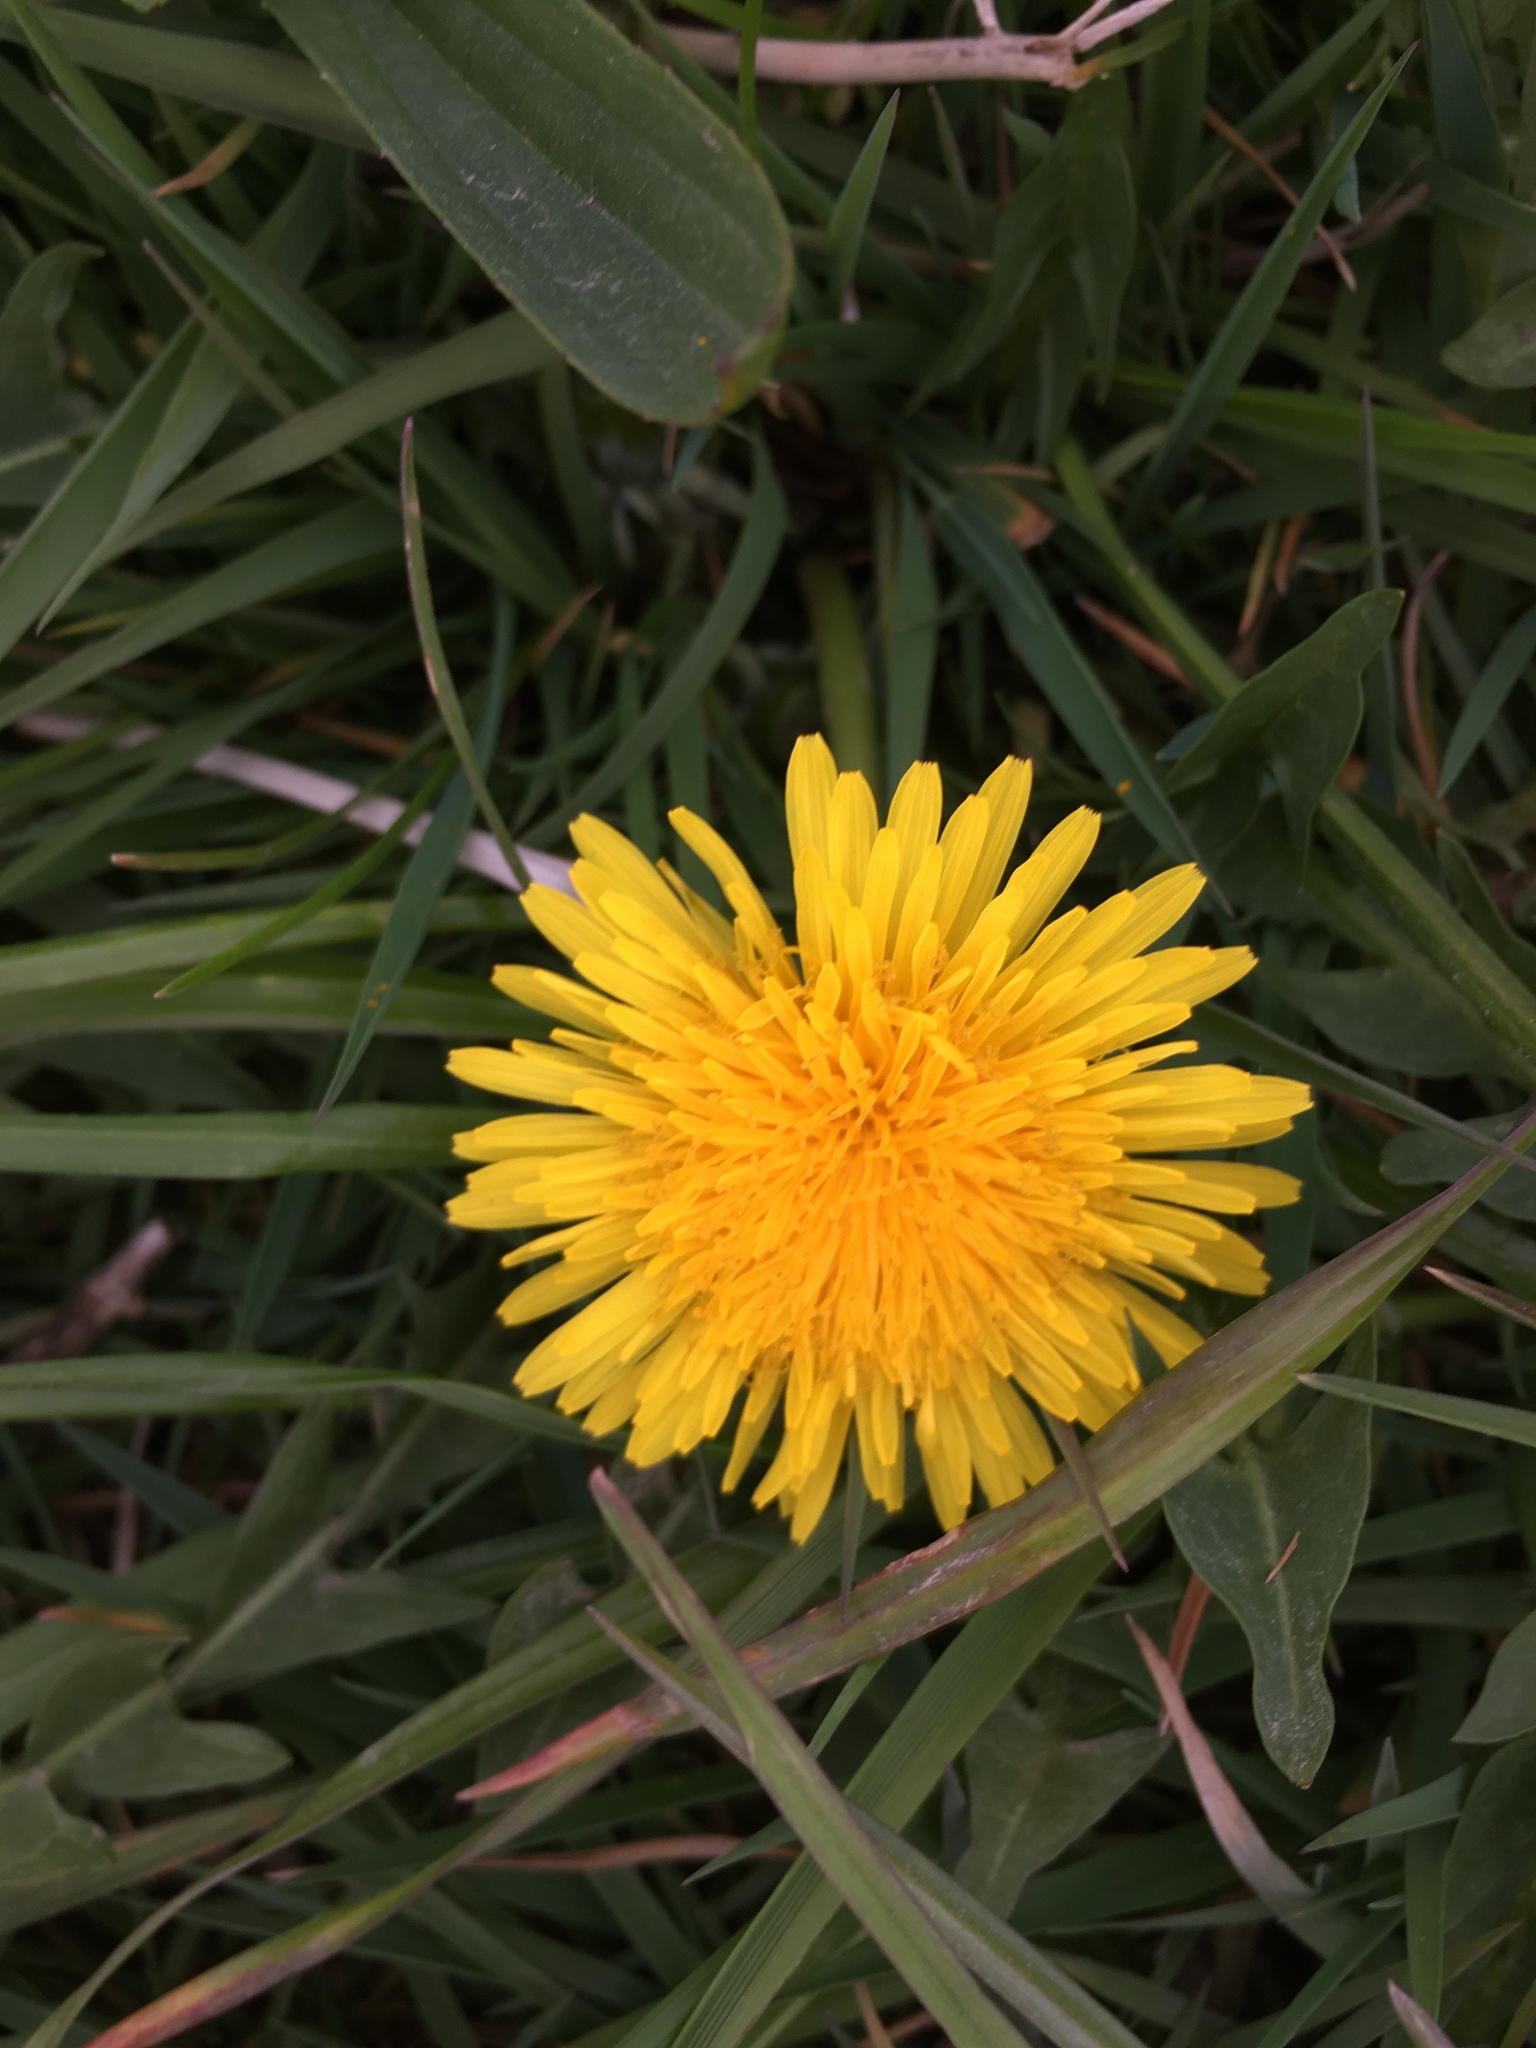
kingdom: Plantae
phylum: Tracheophyta
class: Magnoliopsida
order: Asterales
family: Asteraceae
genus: Taraxacum
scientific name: Taraxacum officinale
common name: Common dandelion
